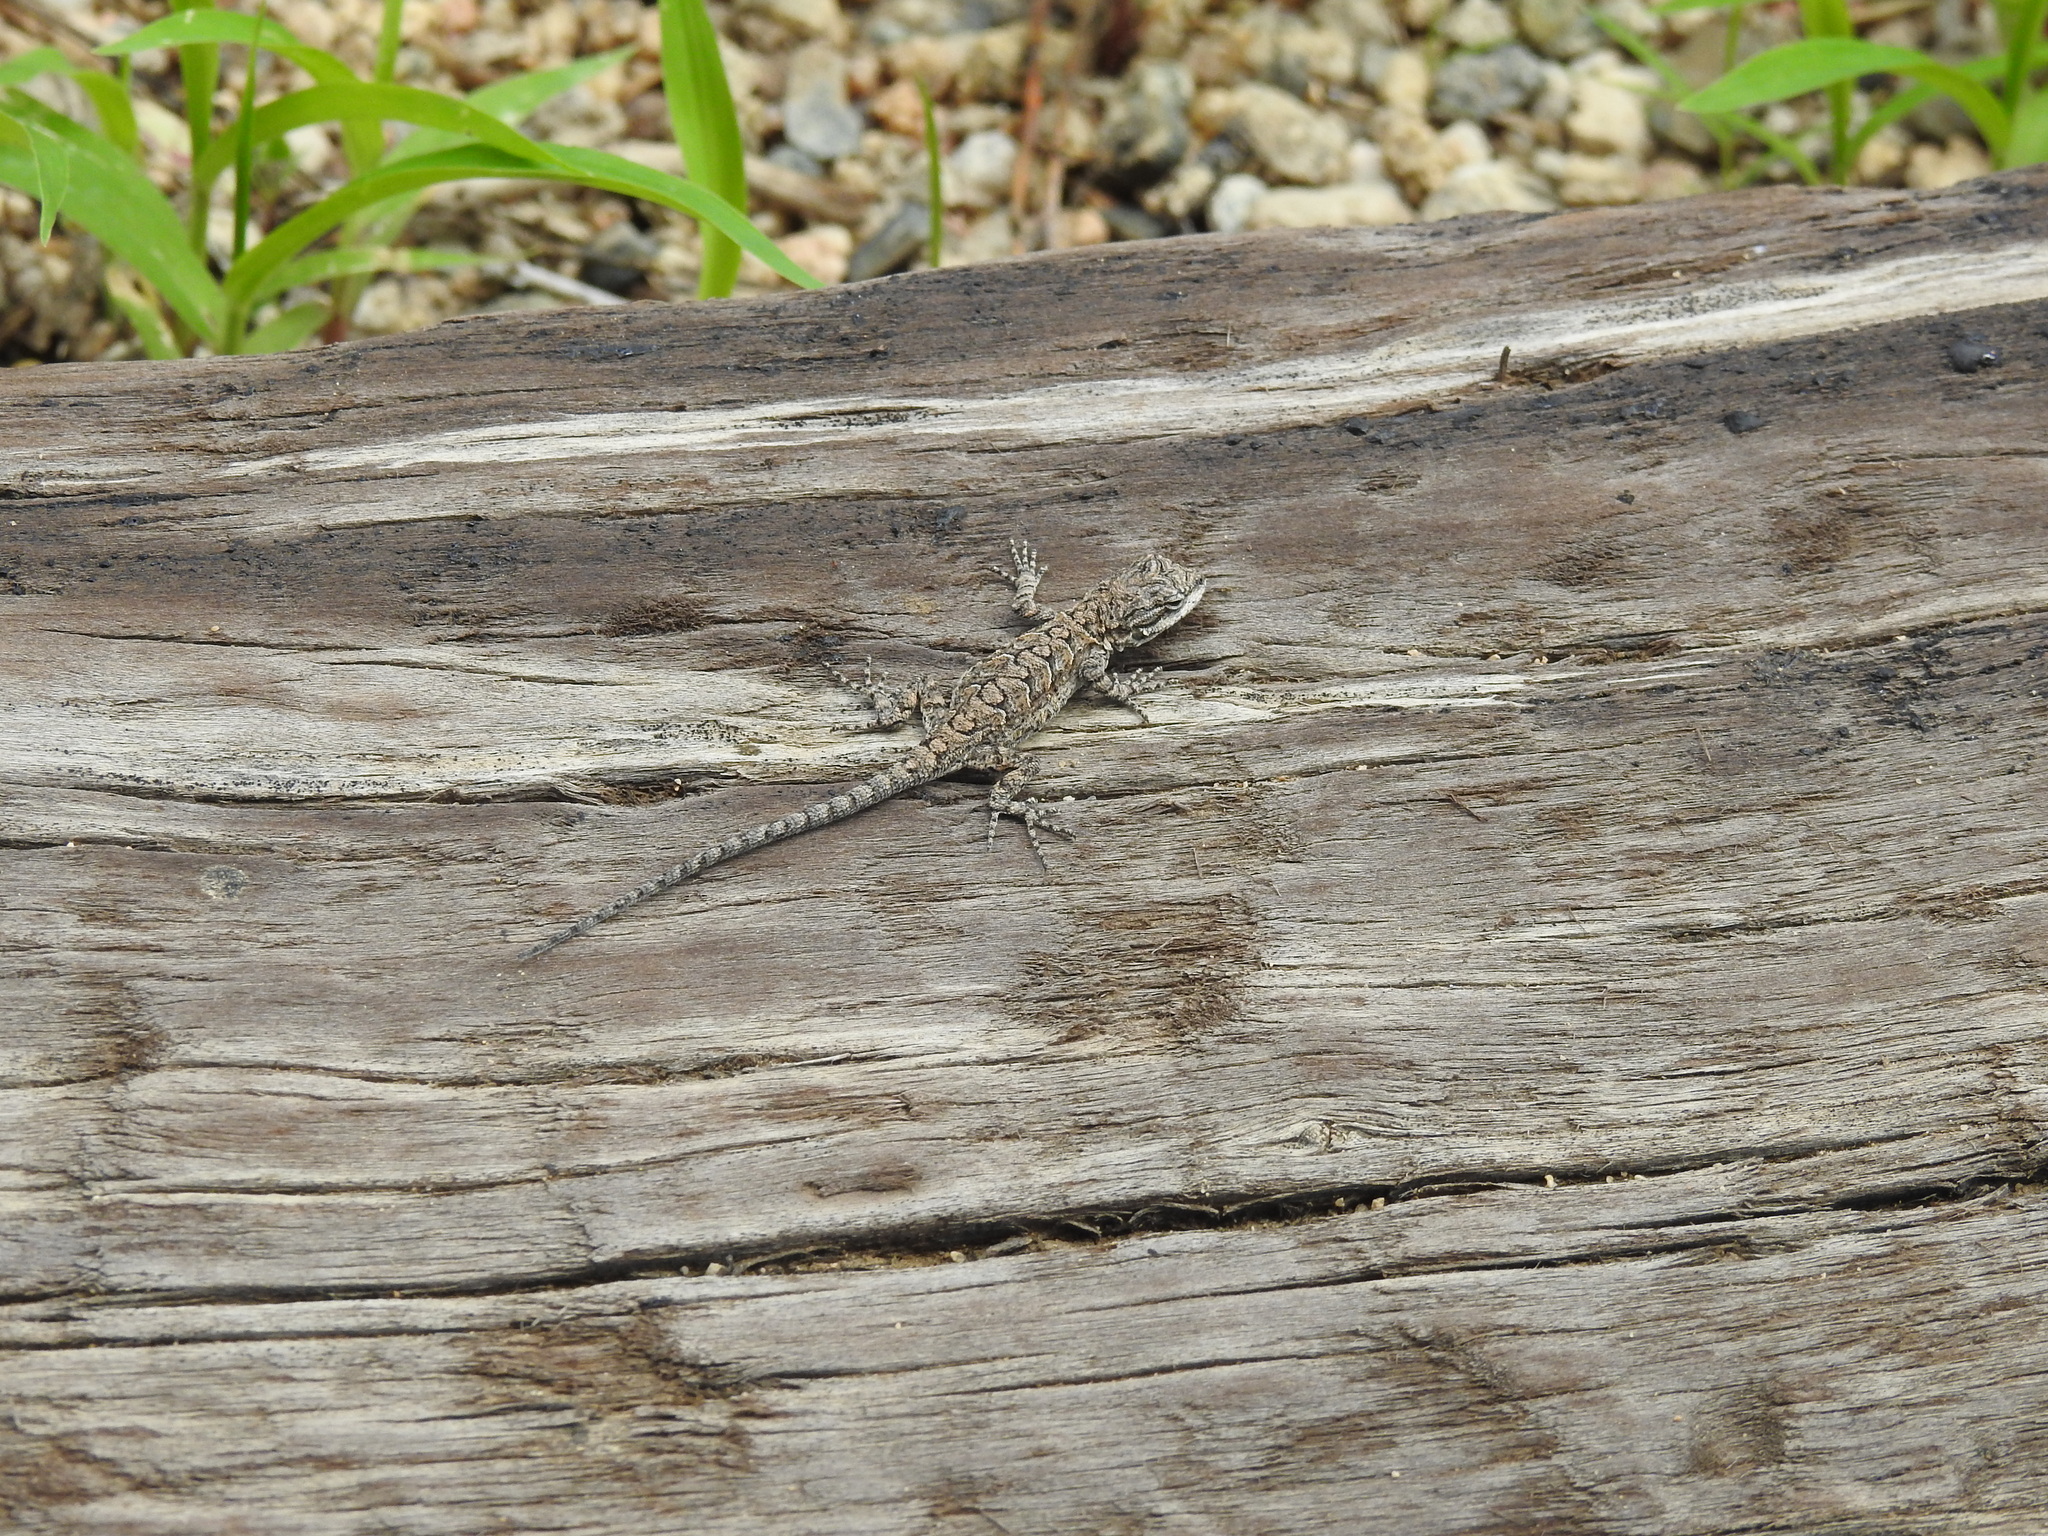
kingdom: Animalia
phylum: Chordata
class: Squamata
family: Phrynosomatidae
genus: Urosaurus
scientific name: Urosaurus ornatus
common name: Ornate tree lizard
